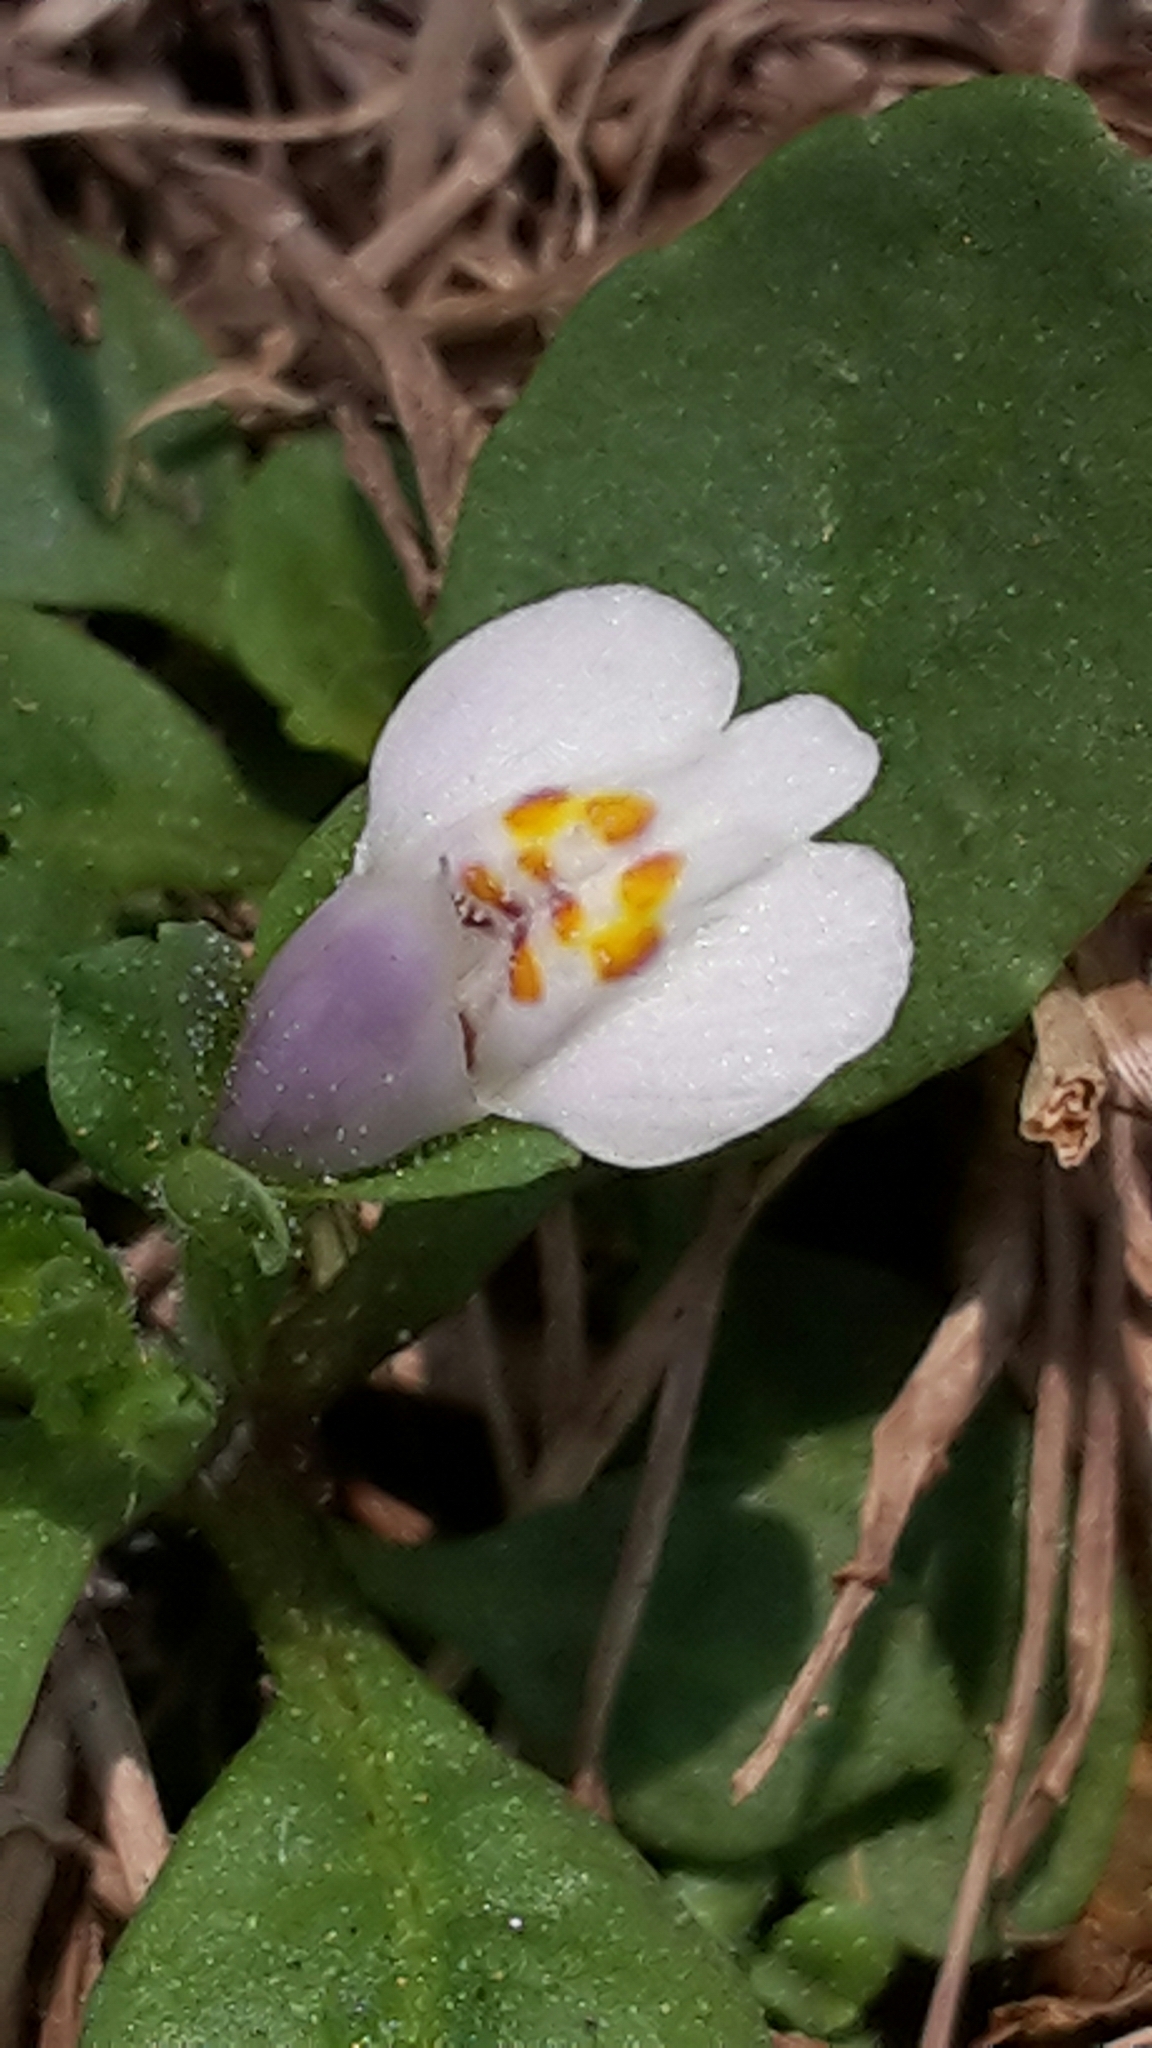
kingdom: Plantae
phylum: Tracheophyta
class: Magnoliopsida
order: Lamiales
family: Mazaceae
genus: Mazus
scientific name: Mazus pumilus
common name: Japanese mazus
